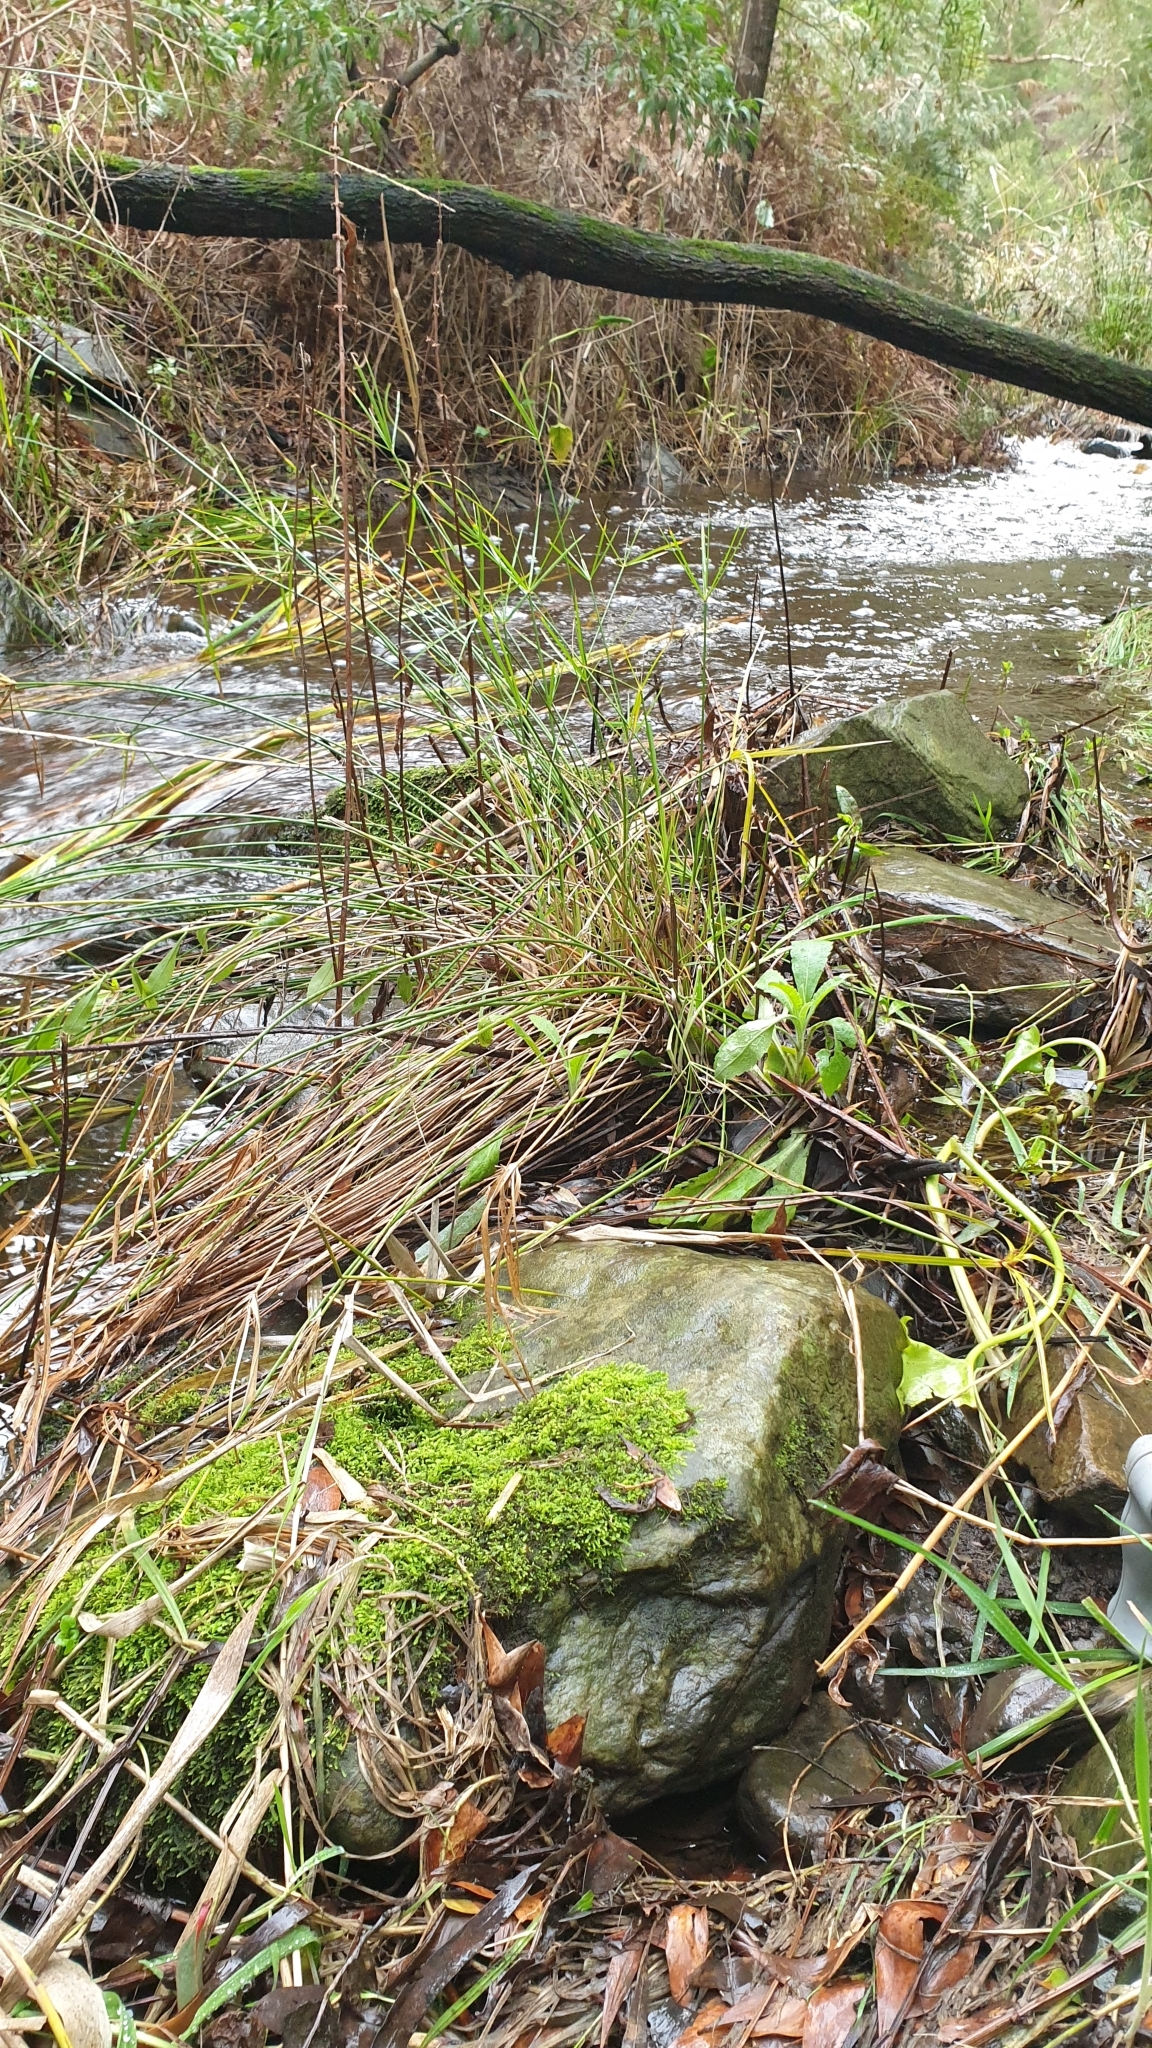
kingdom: Plantae
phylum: Bryophyta
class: Bryopsida
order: Hypnodendrales
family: Racopilaceae
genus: Racopilum
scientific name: Racopilum cuspidigerum
